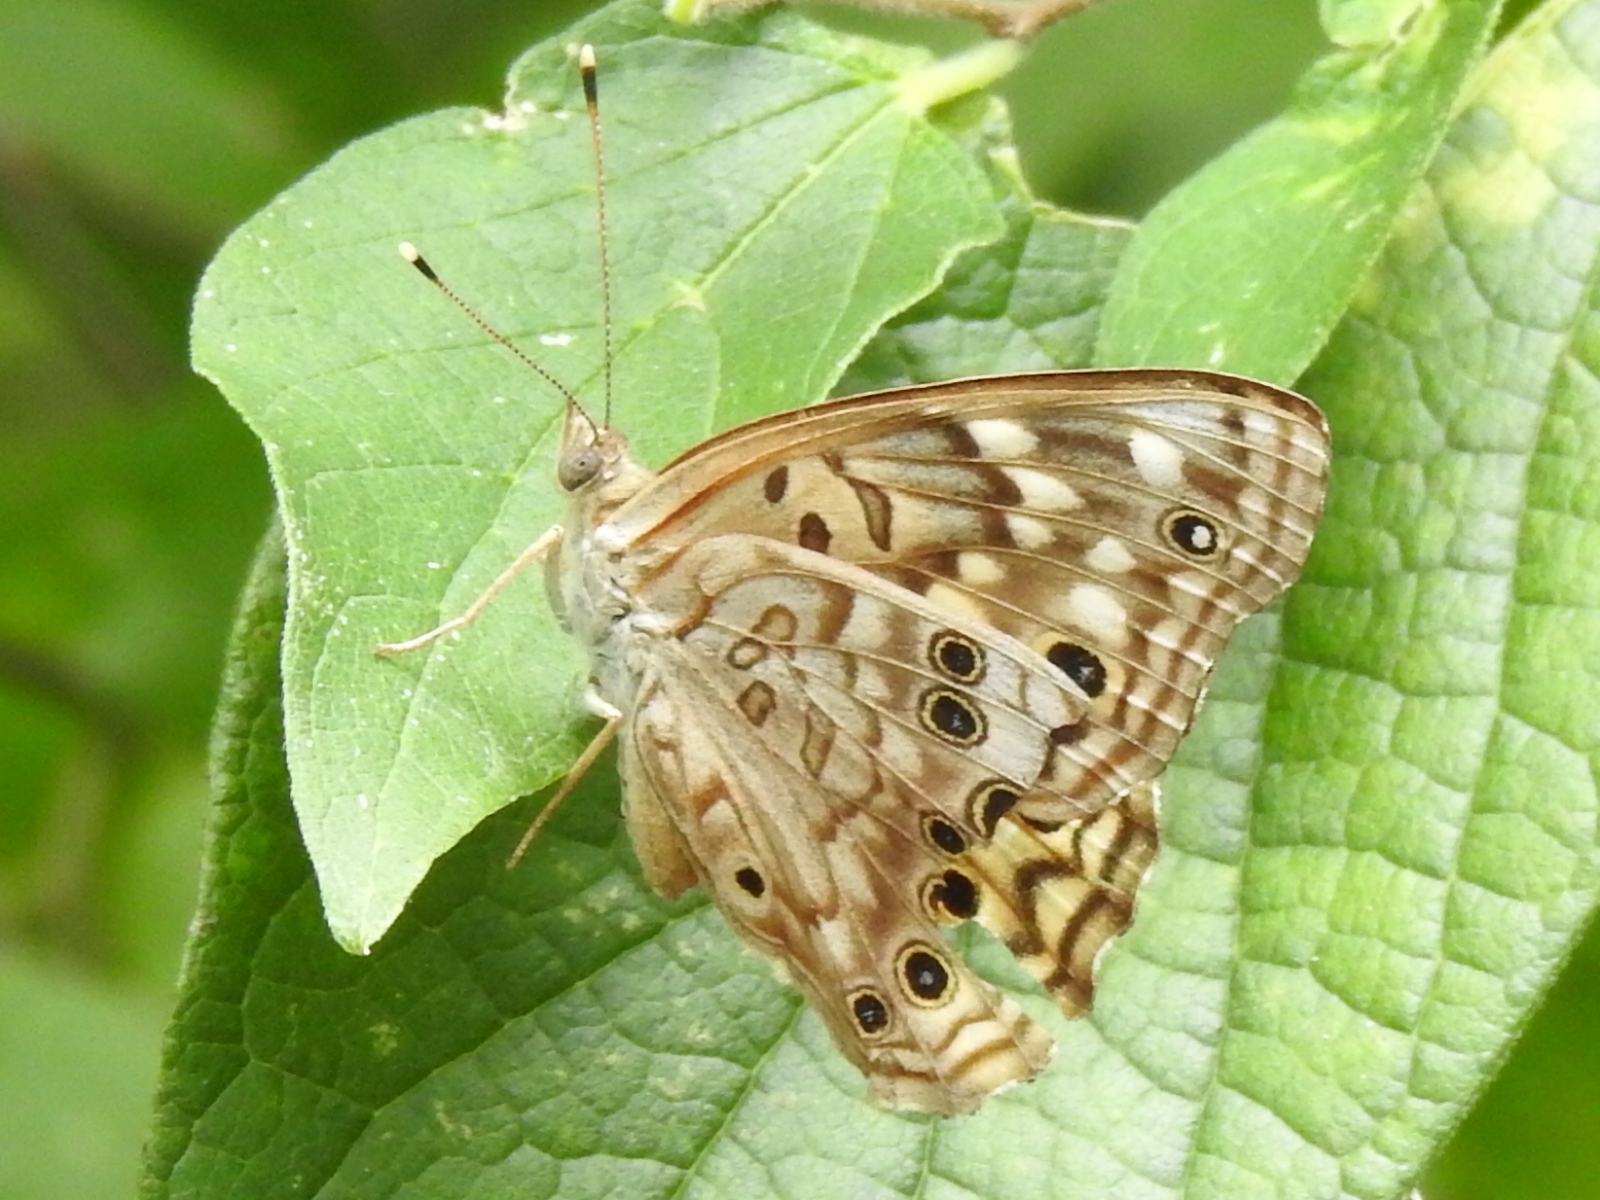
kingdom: Animalia
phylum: Arthropoda
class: Insecta
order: Lepidoptera
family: Nymphalidae
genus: Asterocampa
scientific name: Asterocampa celtis
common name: Hackberry emperor
